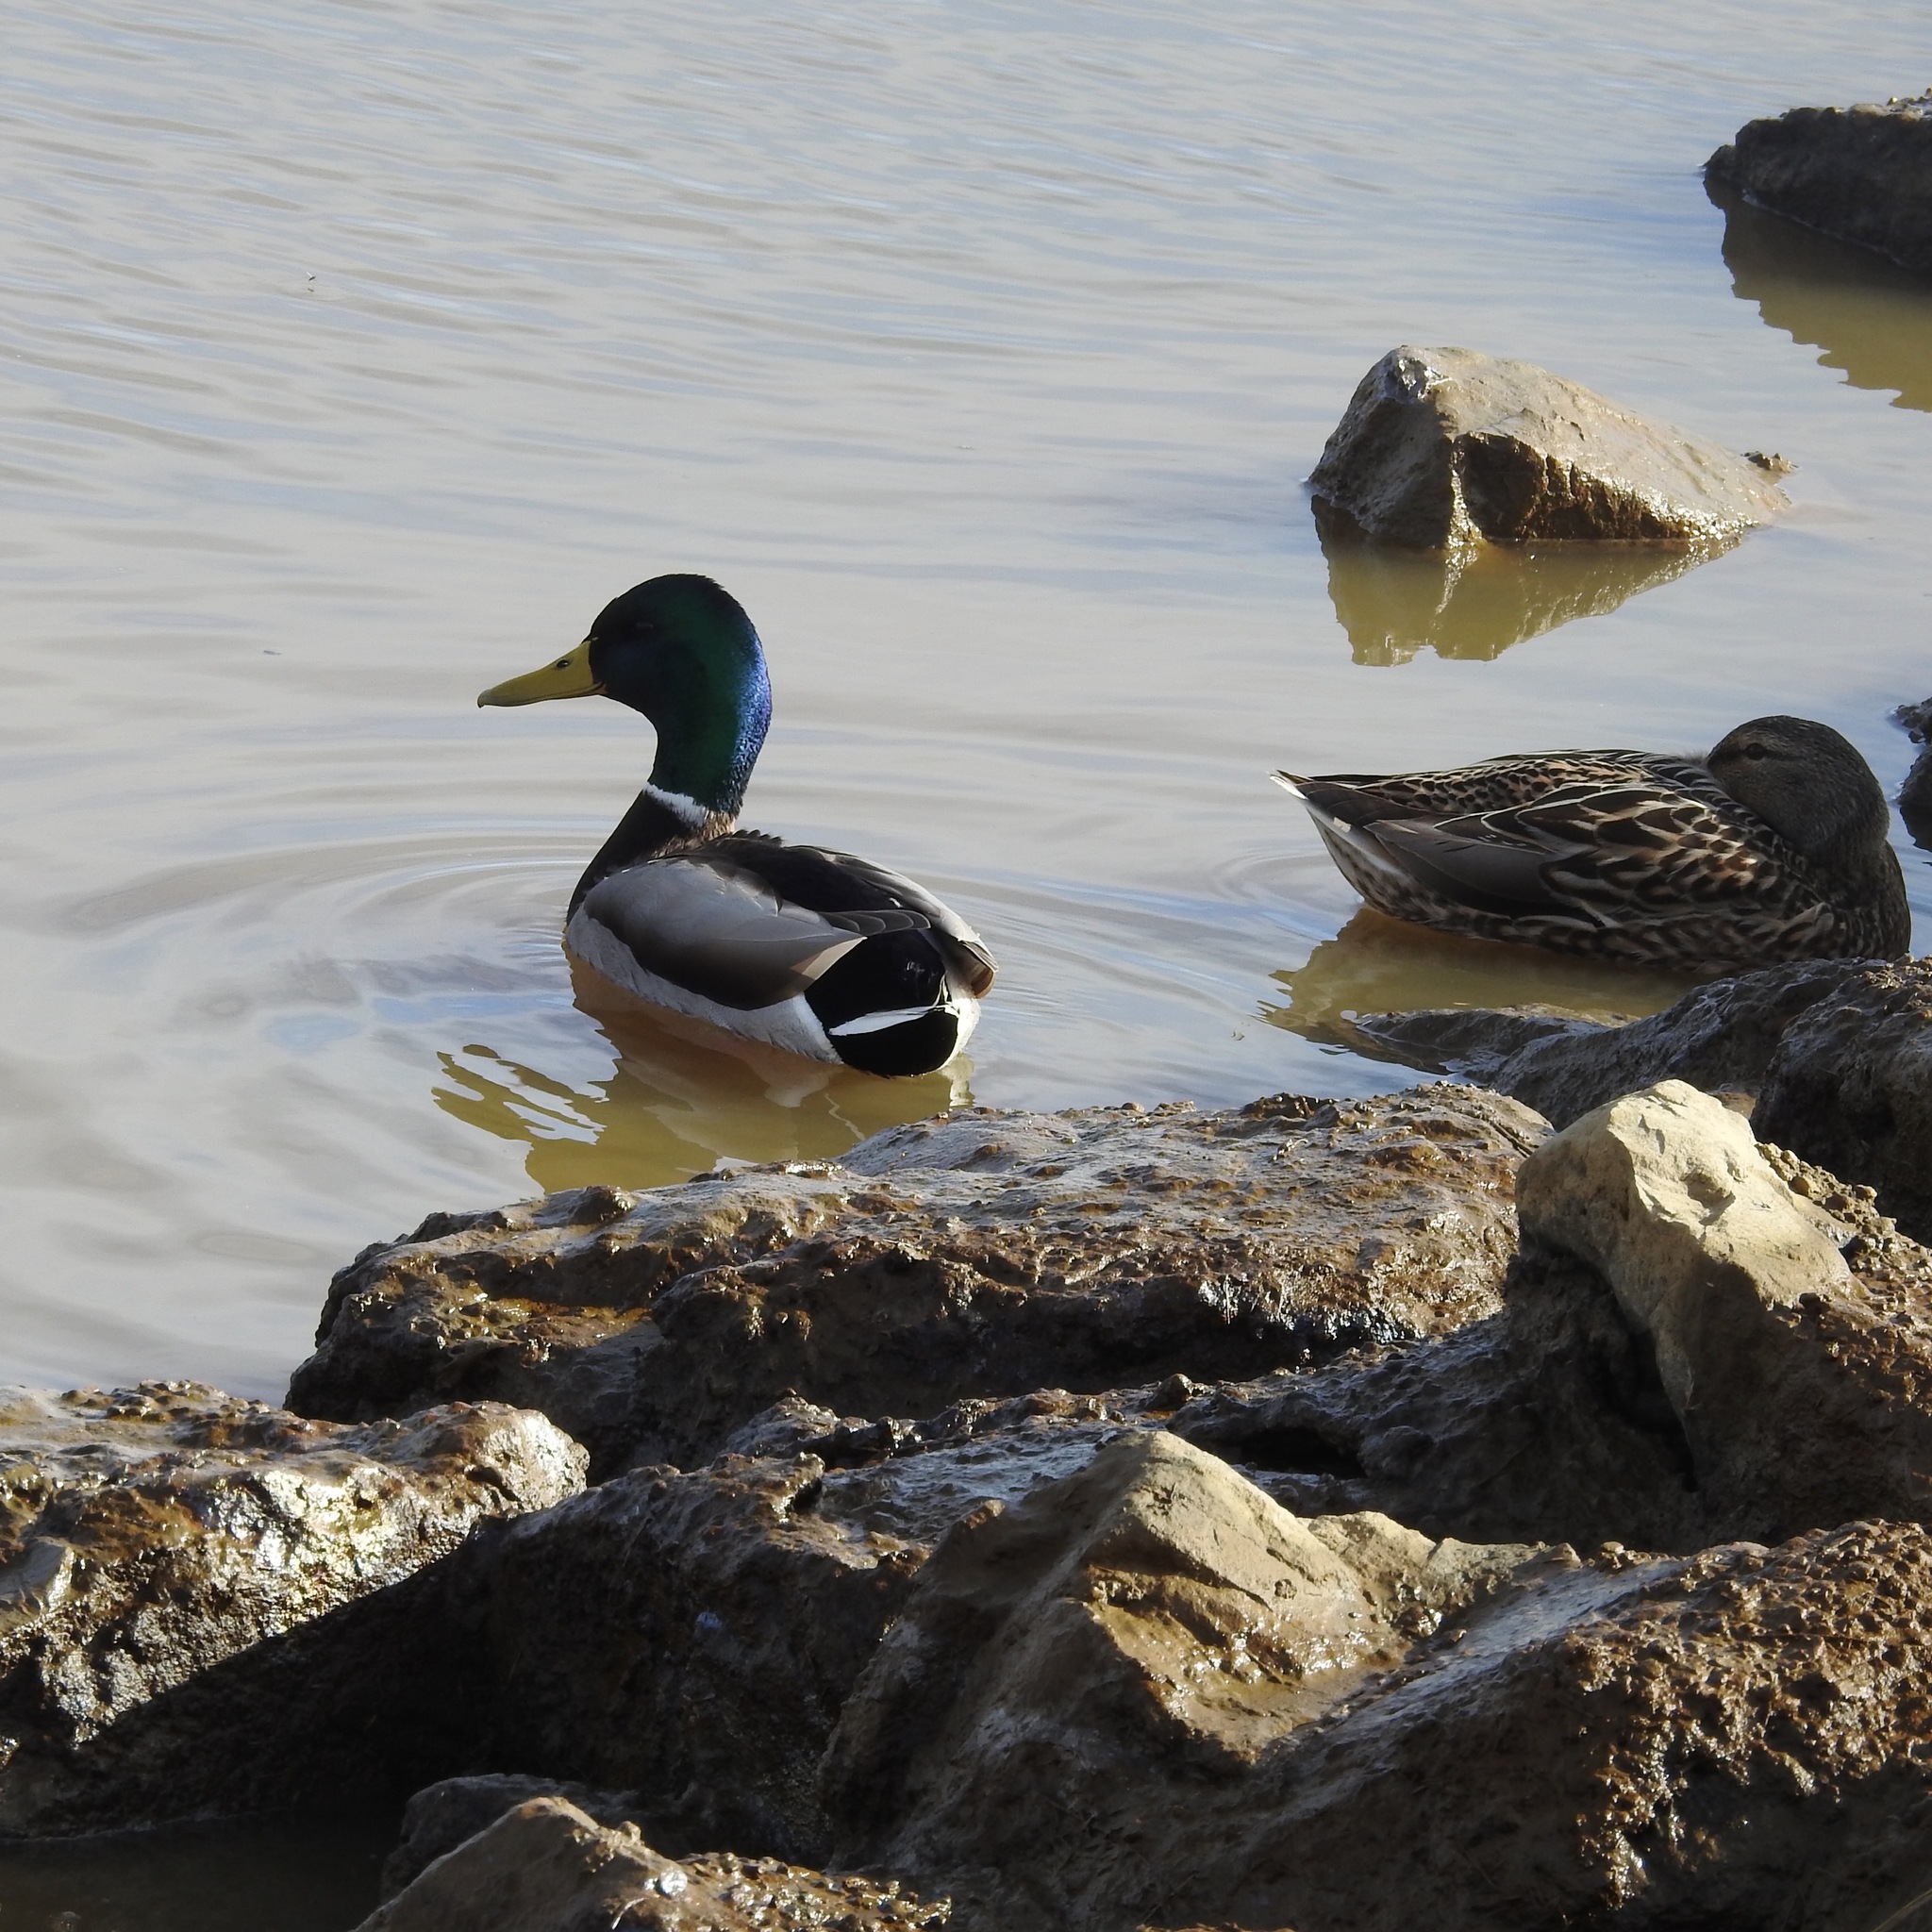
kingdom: Animalia
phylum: Chordata
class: Aves
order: Anseriformes
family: Anatidae
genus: Anas
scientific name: Anas platyrhynchos
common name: Mallard
